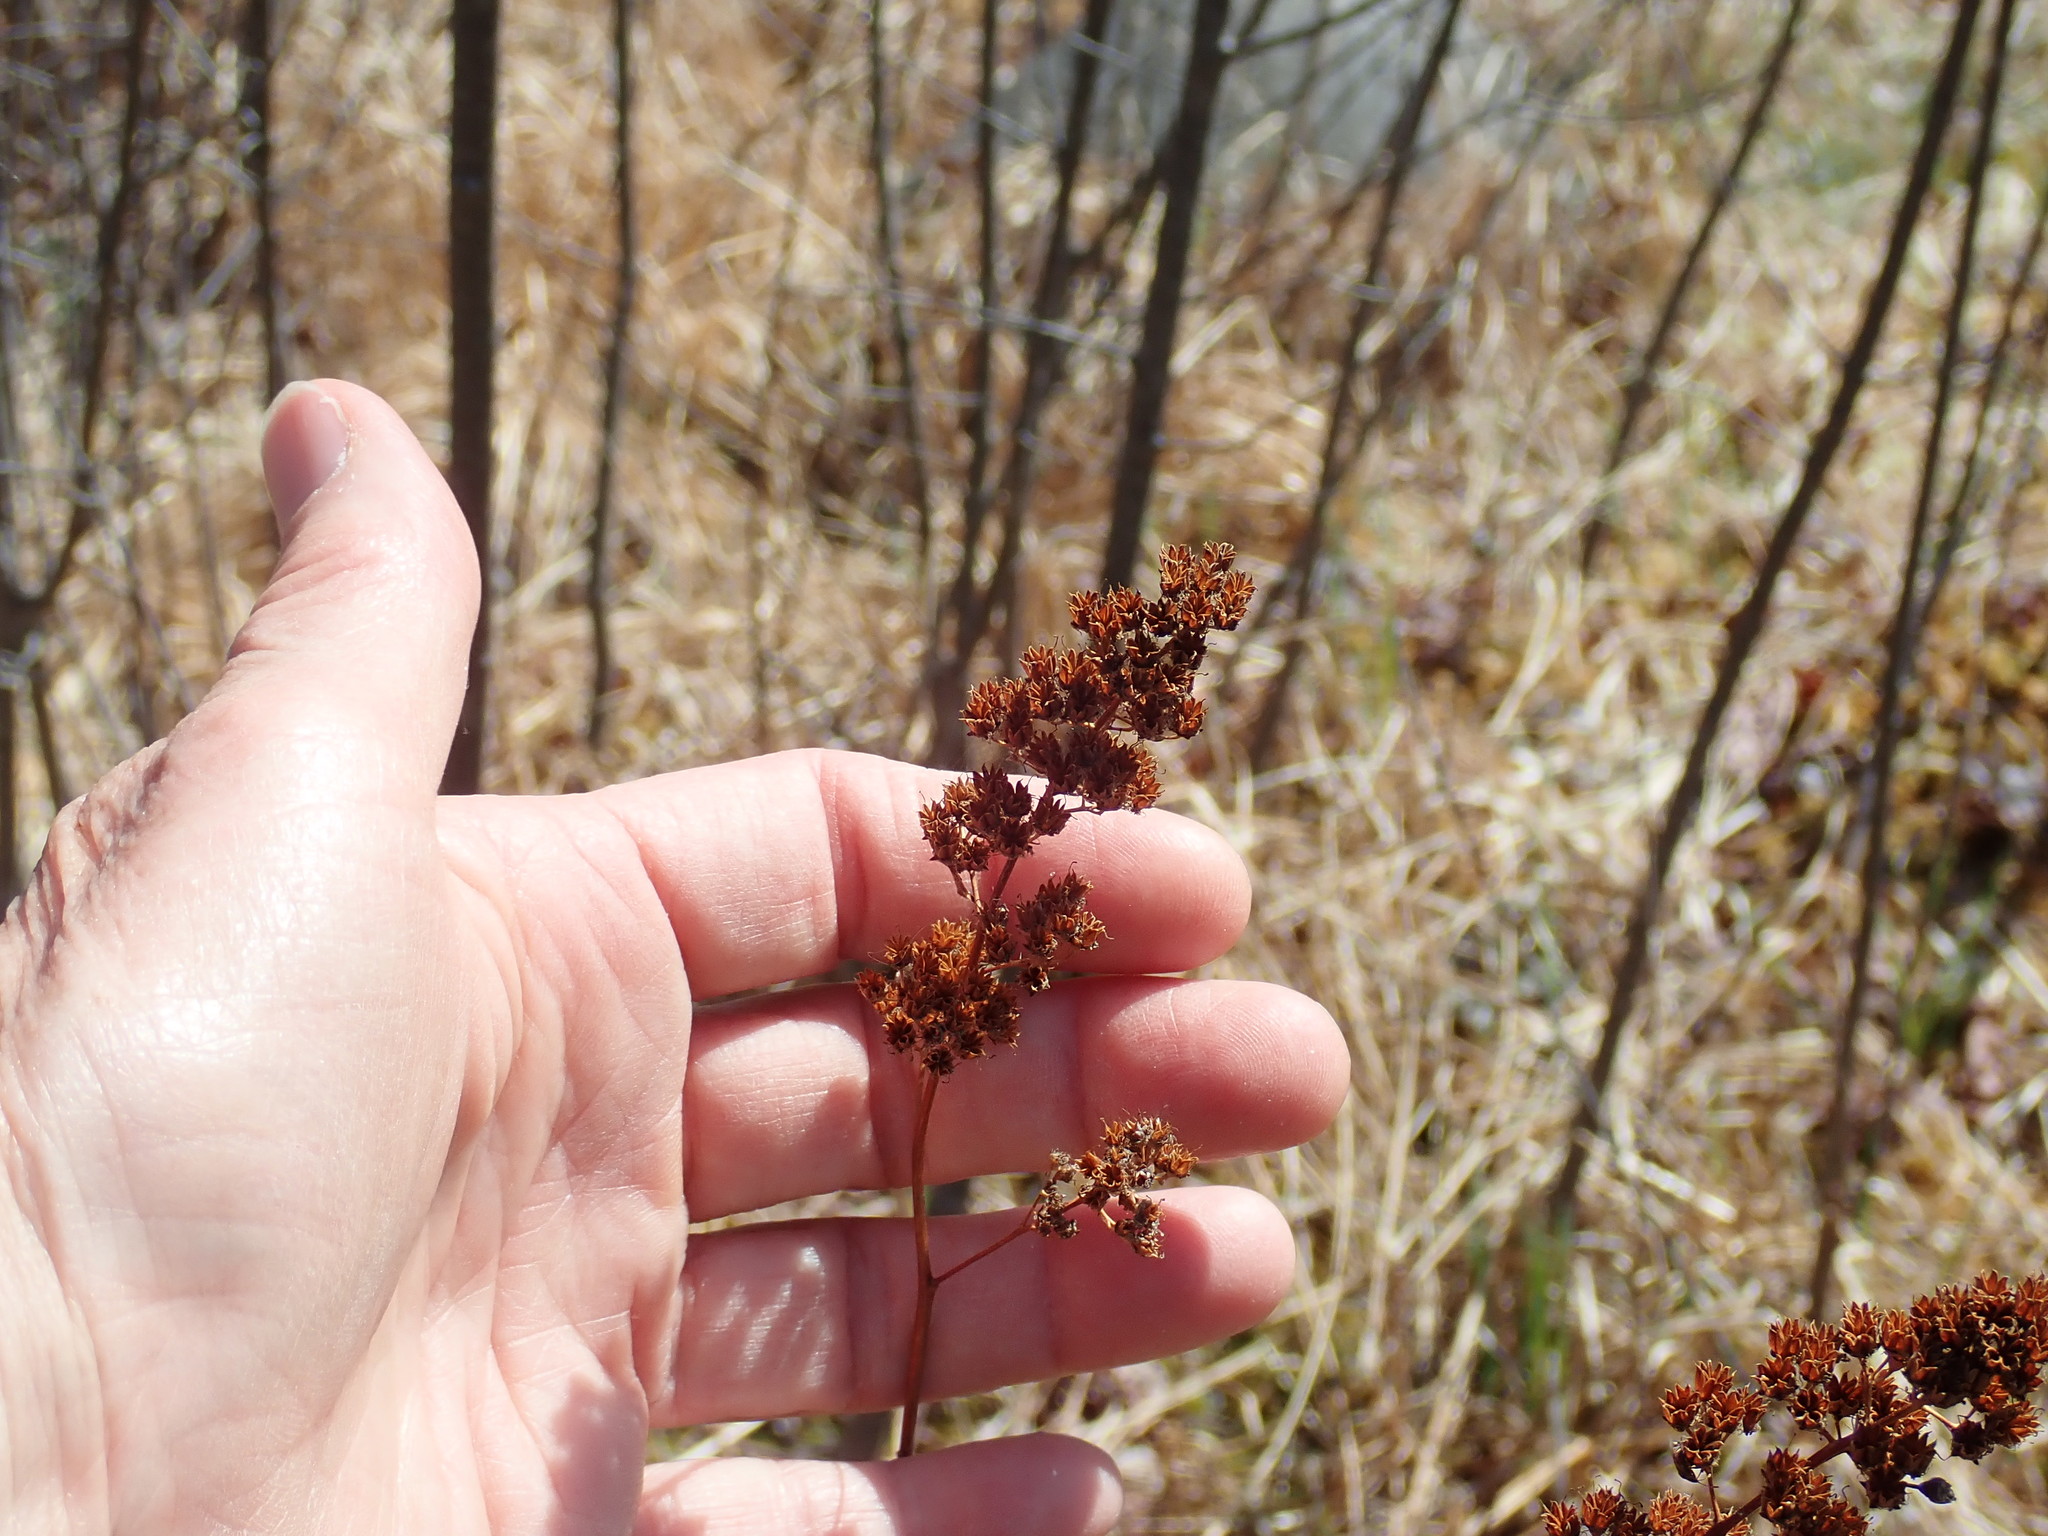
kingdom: Plantae
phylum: Tracheophyta
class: Magnoliopsida
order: Rosales
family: Rosaceae
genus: Spiraea
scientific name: Spiraea alba
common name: Pale bridewort
